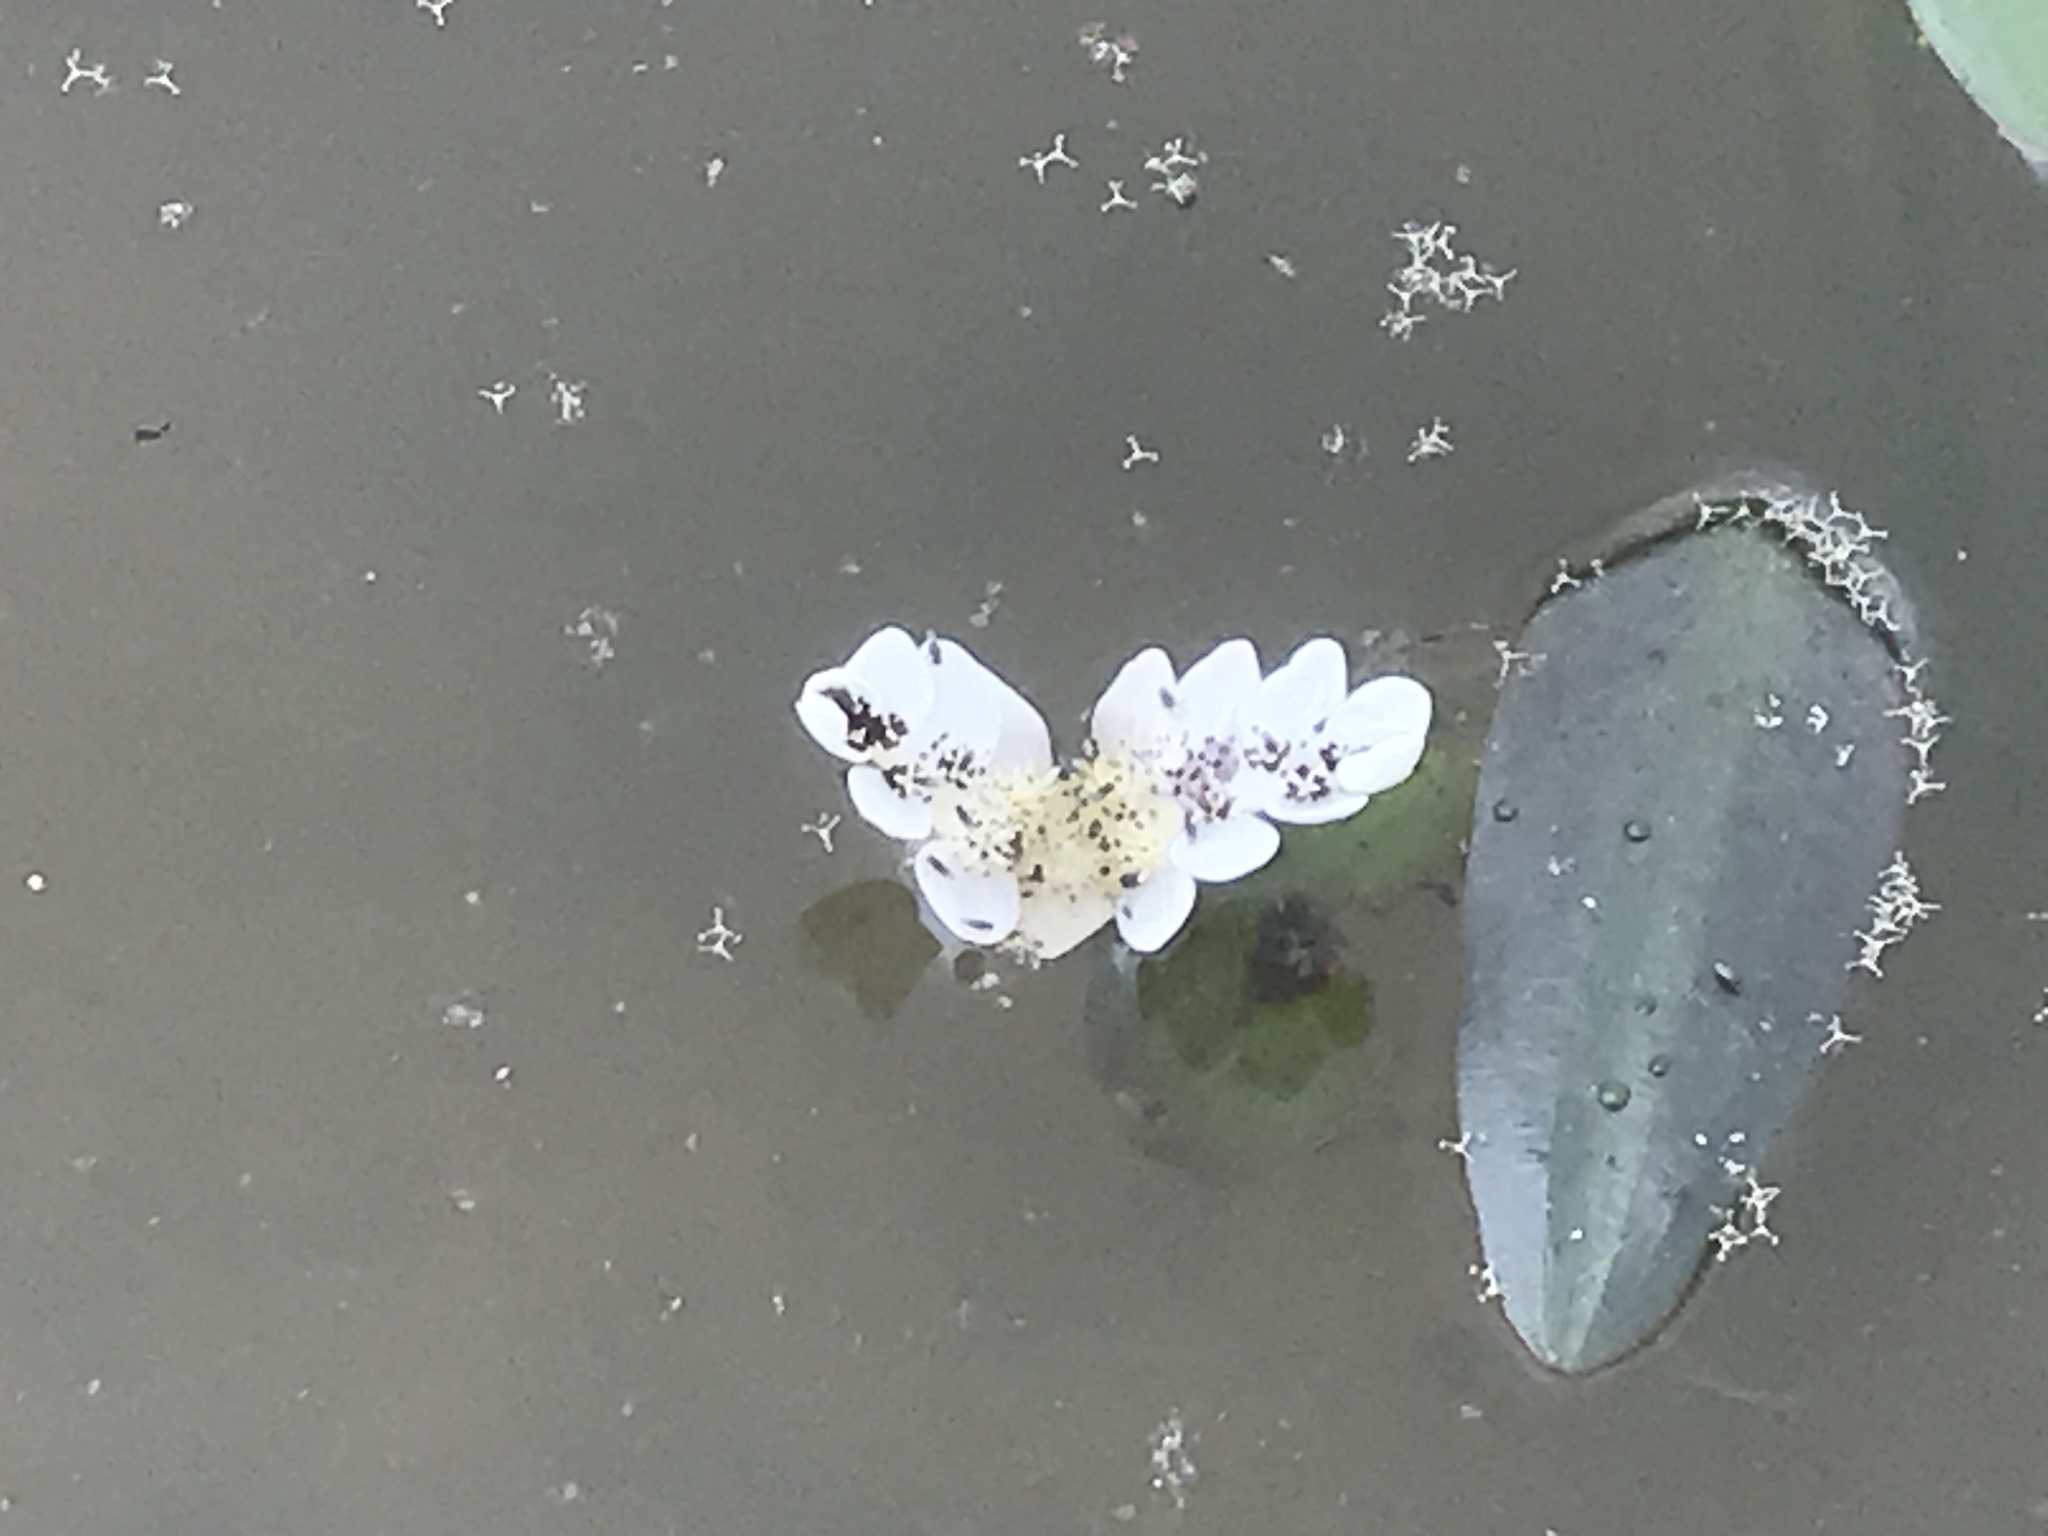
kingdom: Plantae
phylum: Tracheophyta
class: Liliopsida
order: Alismatales
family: Aponogetonaceae
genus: Aponogeton
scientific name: Aponogeton distachyos
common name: Cape-pondweed
